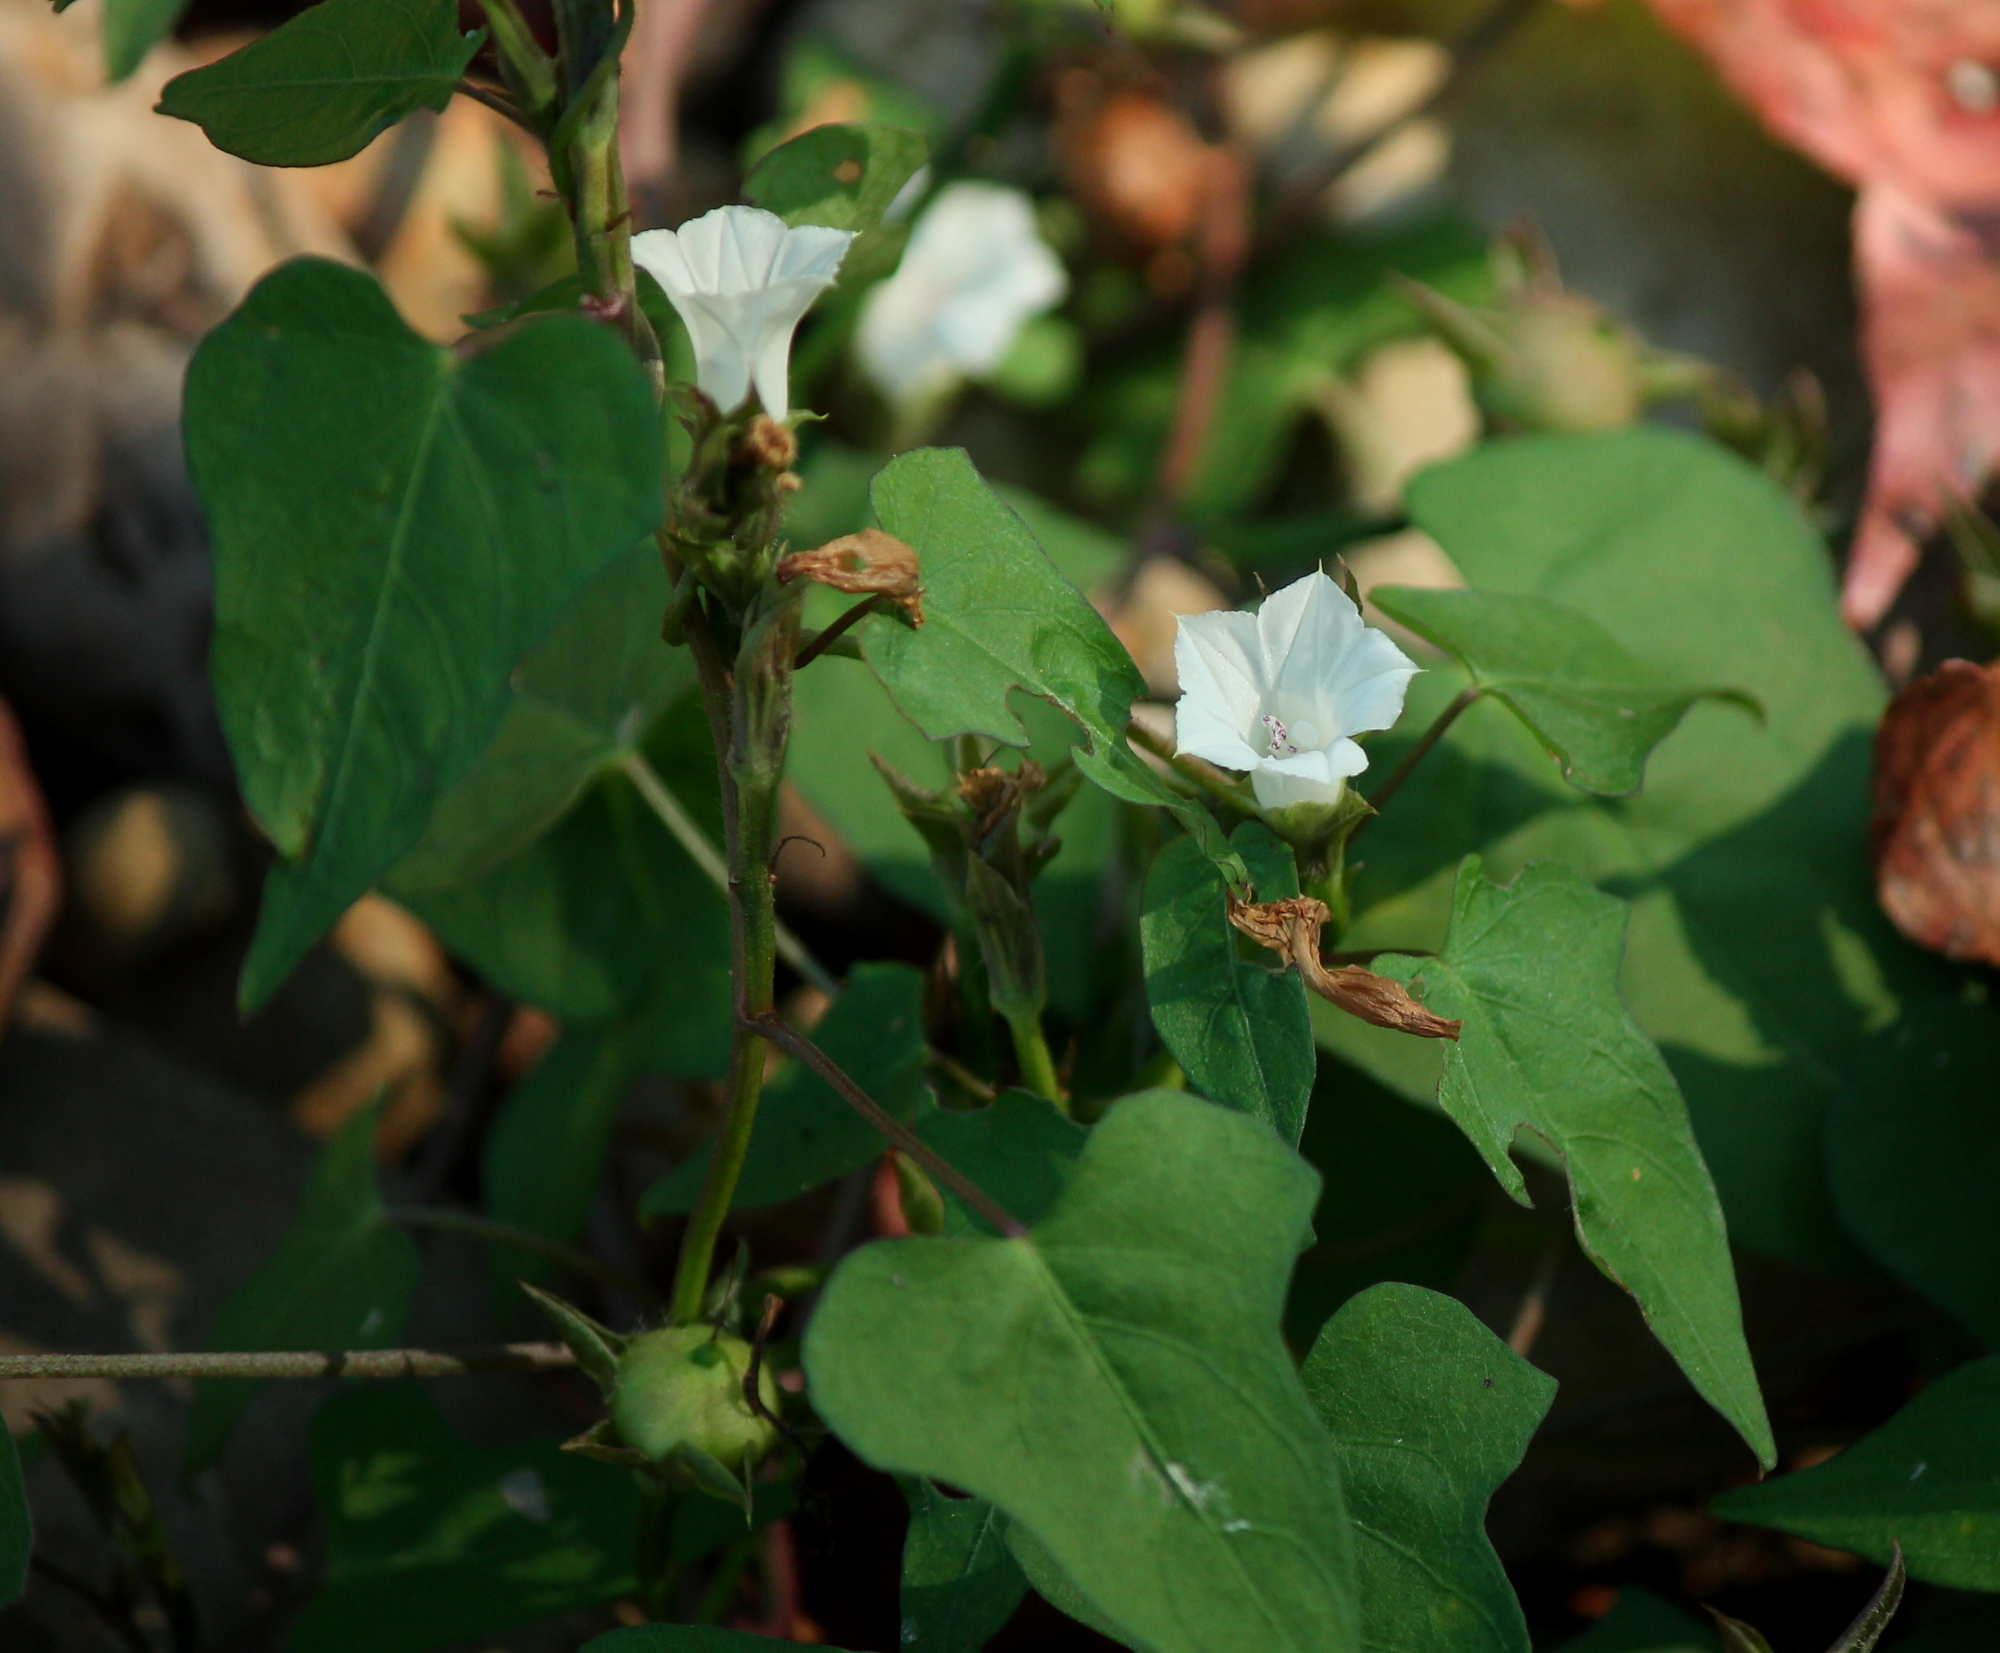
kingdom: Plantae
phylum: Tracheophyta
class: Magnoliopsida
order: Solanales
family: Convolvulaceae
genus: Ipomoea
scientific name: Ipomoea lacunosa
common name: White morning-glory
